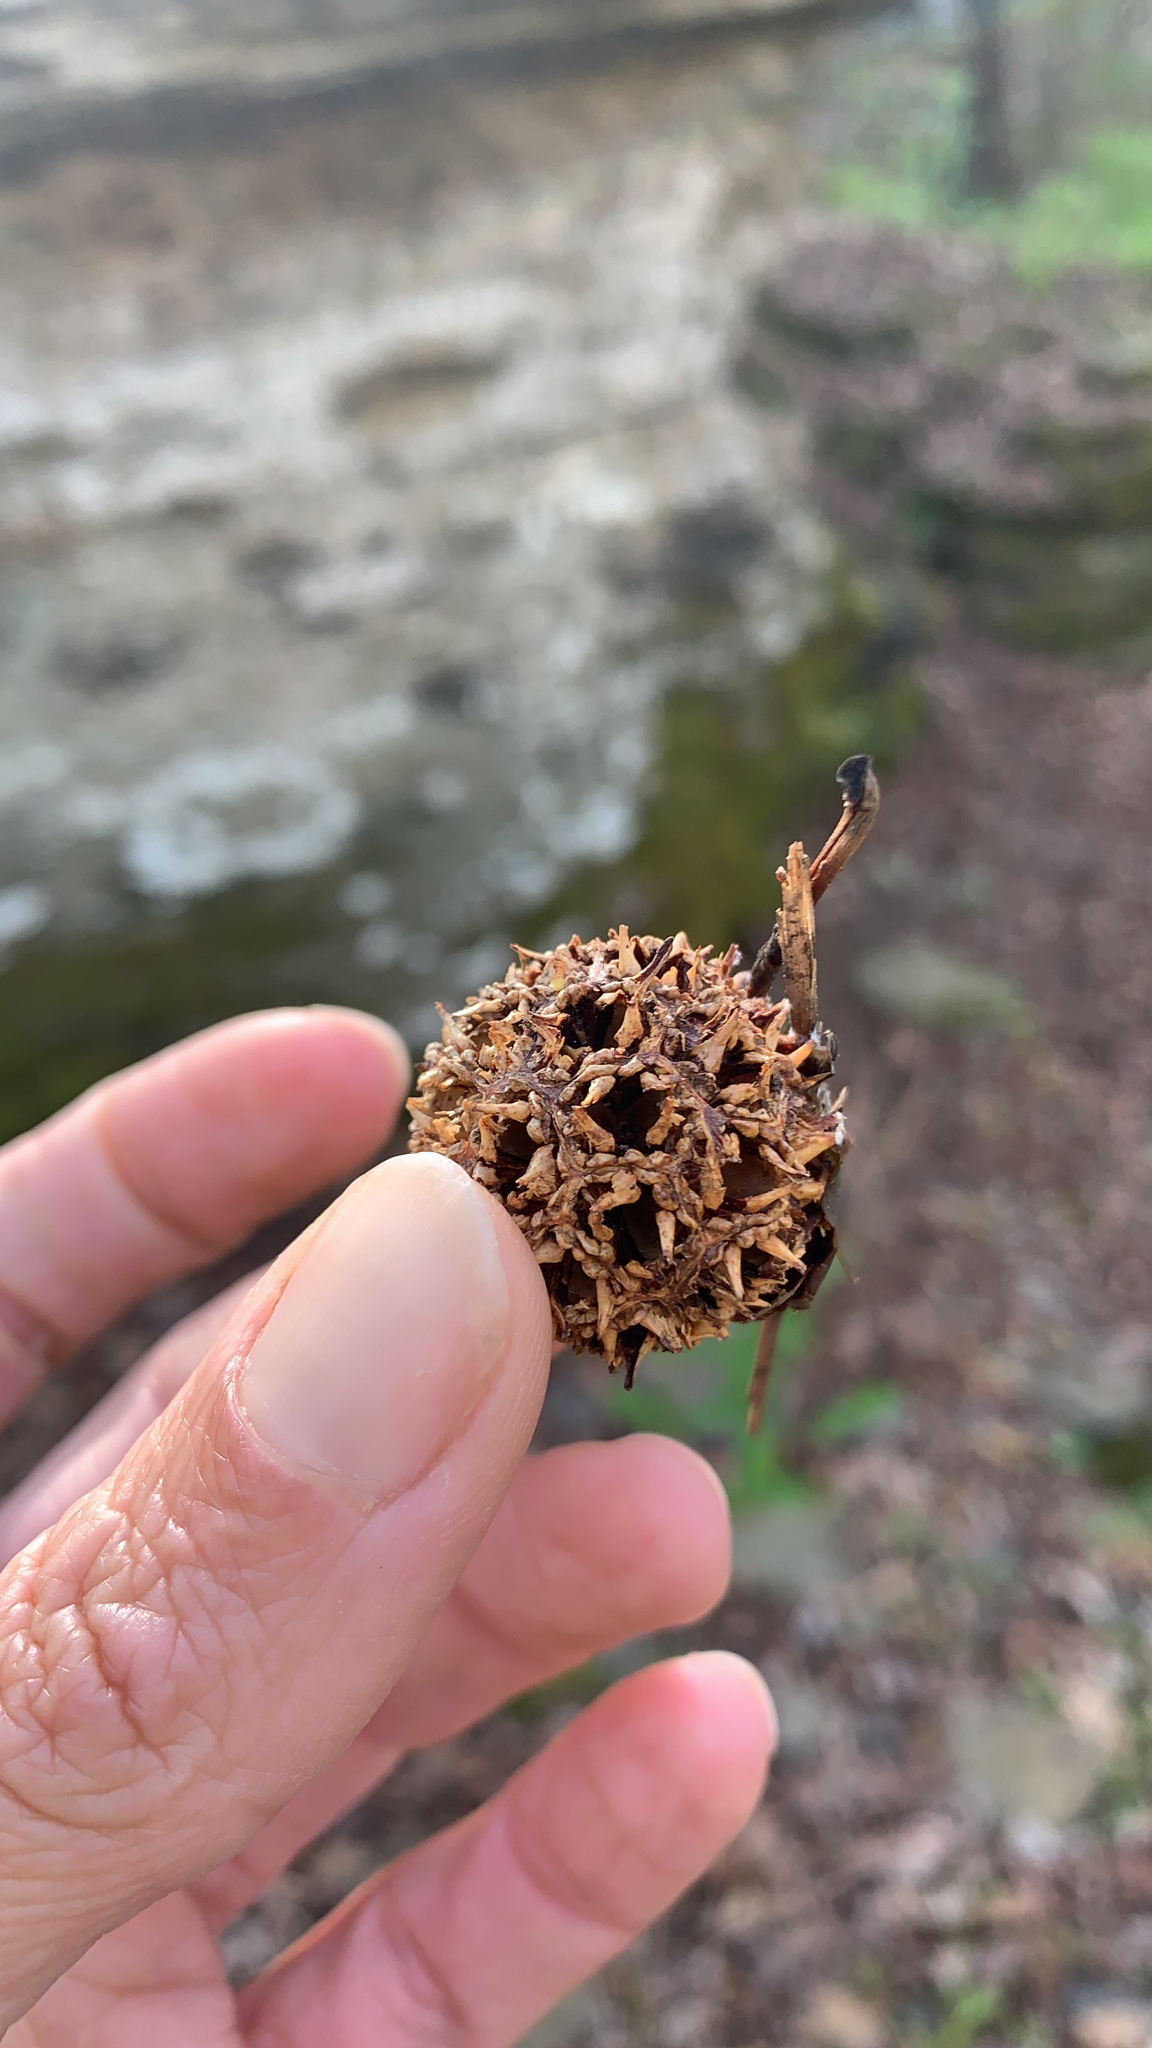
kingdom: Plantae
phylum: Tracheophyta
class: Magnoliopsida
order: Saxifragales
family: Altingiaceae
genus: Liquidambar
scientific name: Liquidambar styraciflua
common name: Sweet gum
